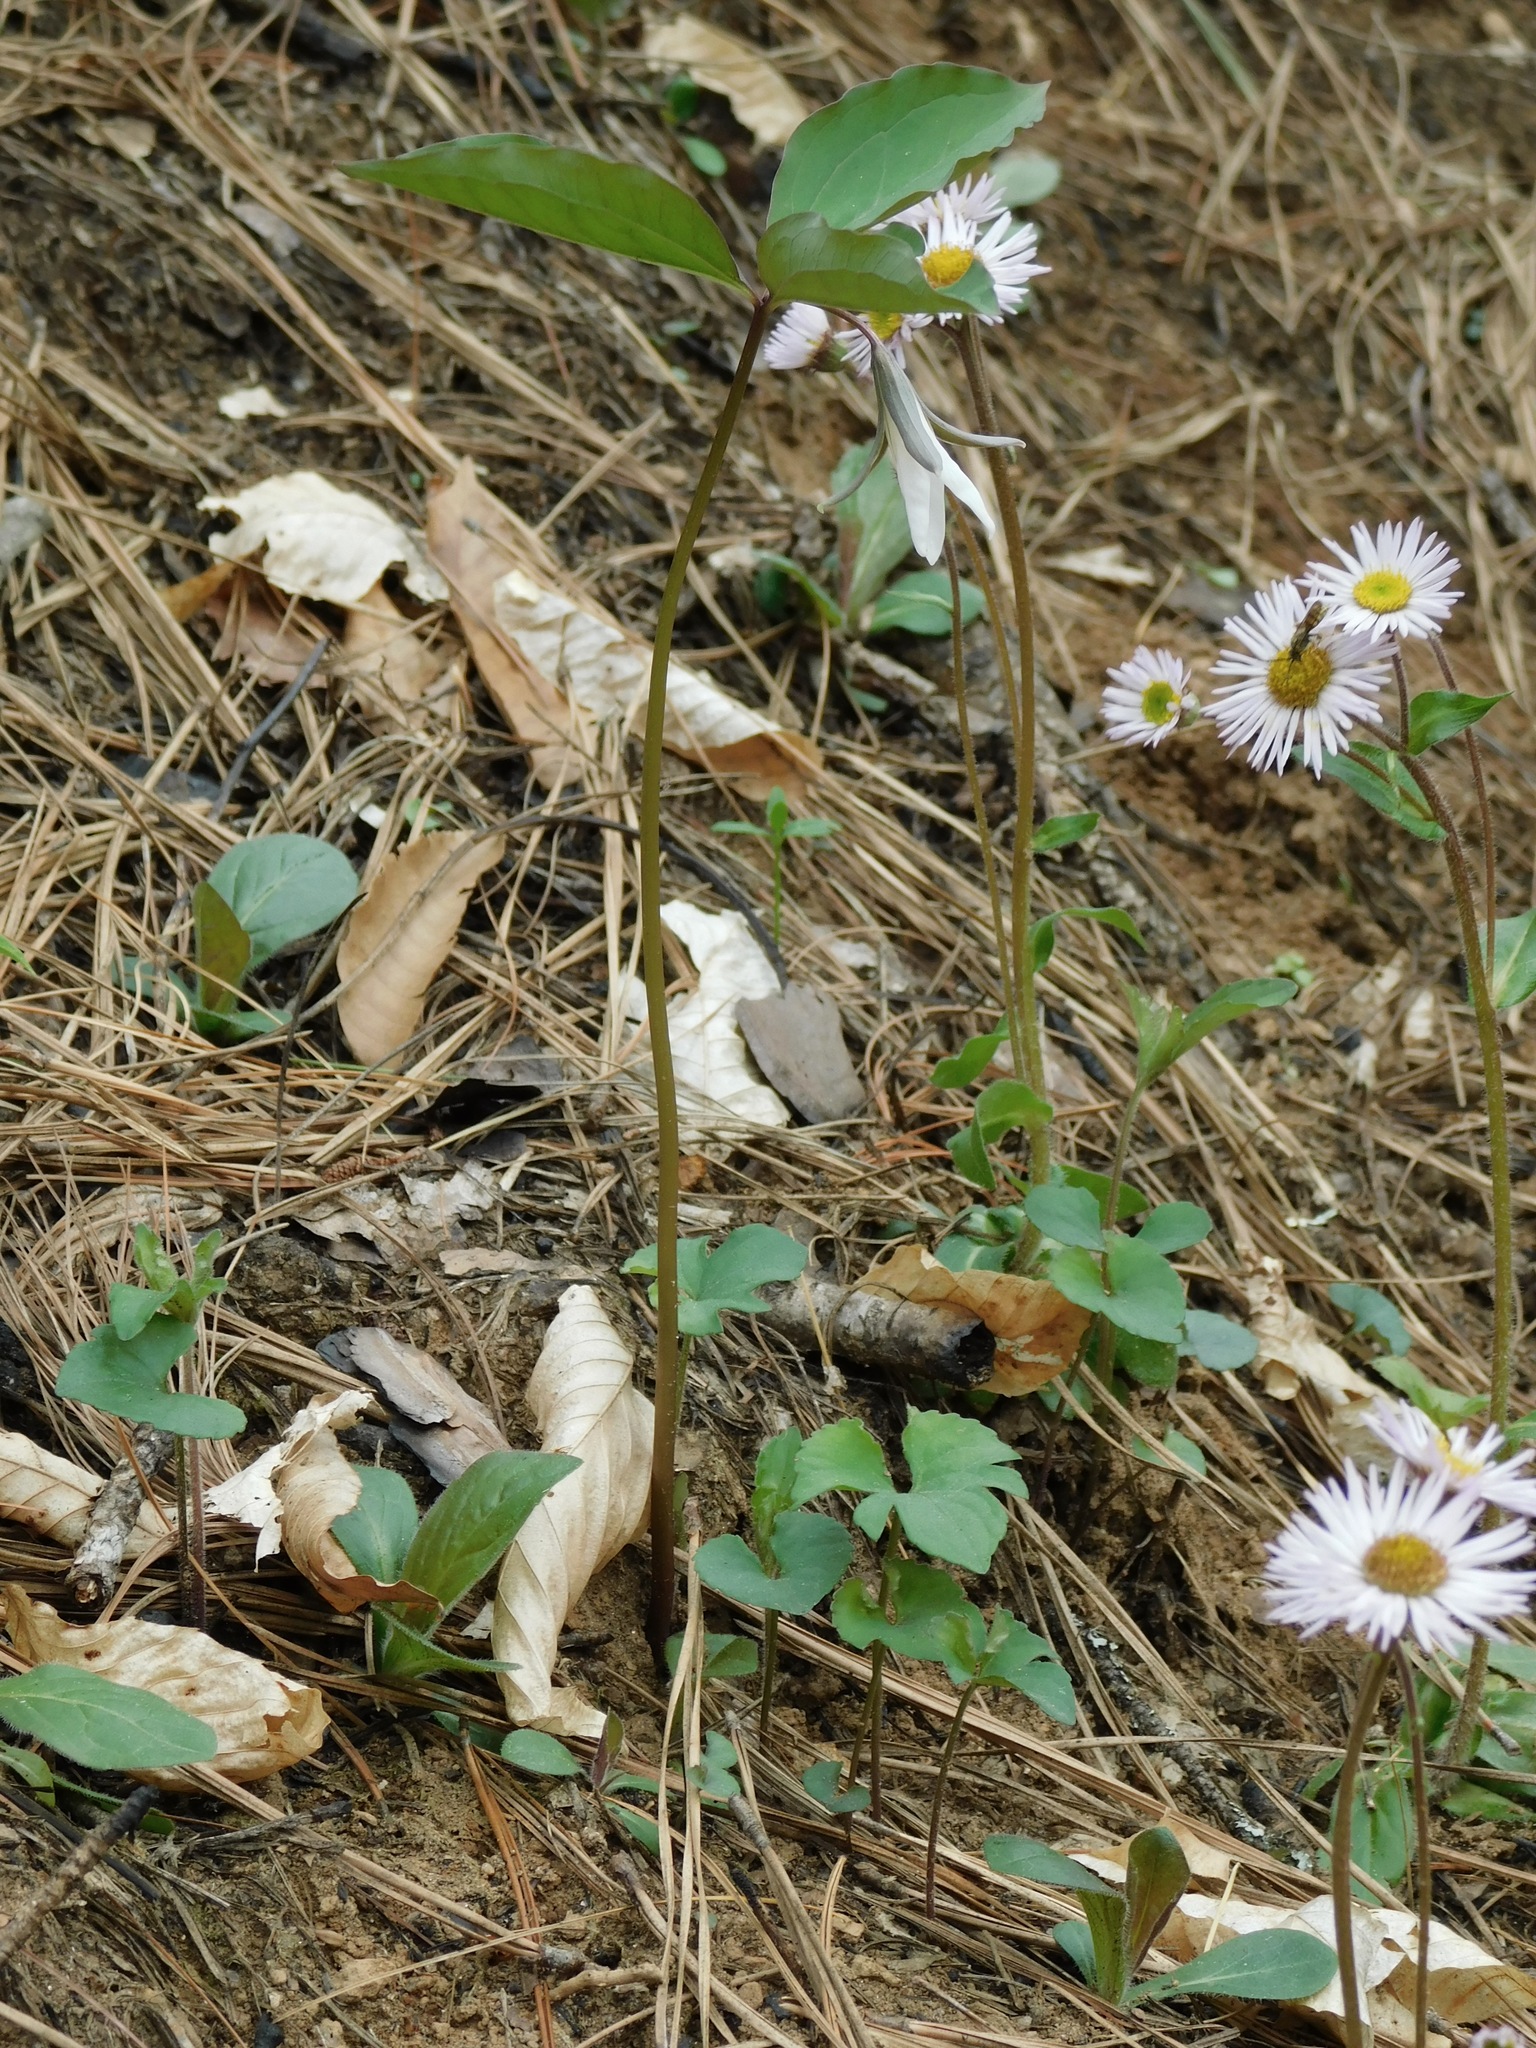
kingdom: Plantae
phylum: Tracheophyta
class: Liliopsida
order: Liliales
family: Melanthiaceae
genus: Trillium
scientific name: Trillium catesbaei
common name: Bashful trillium
